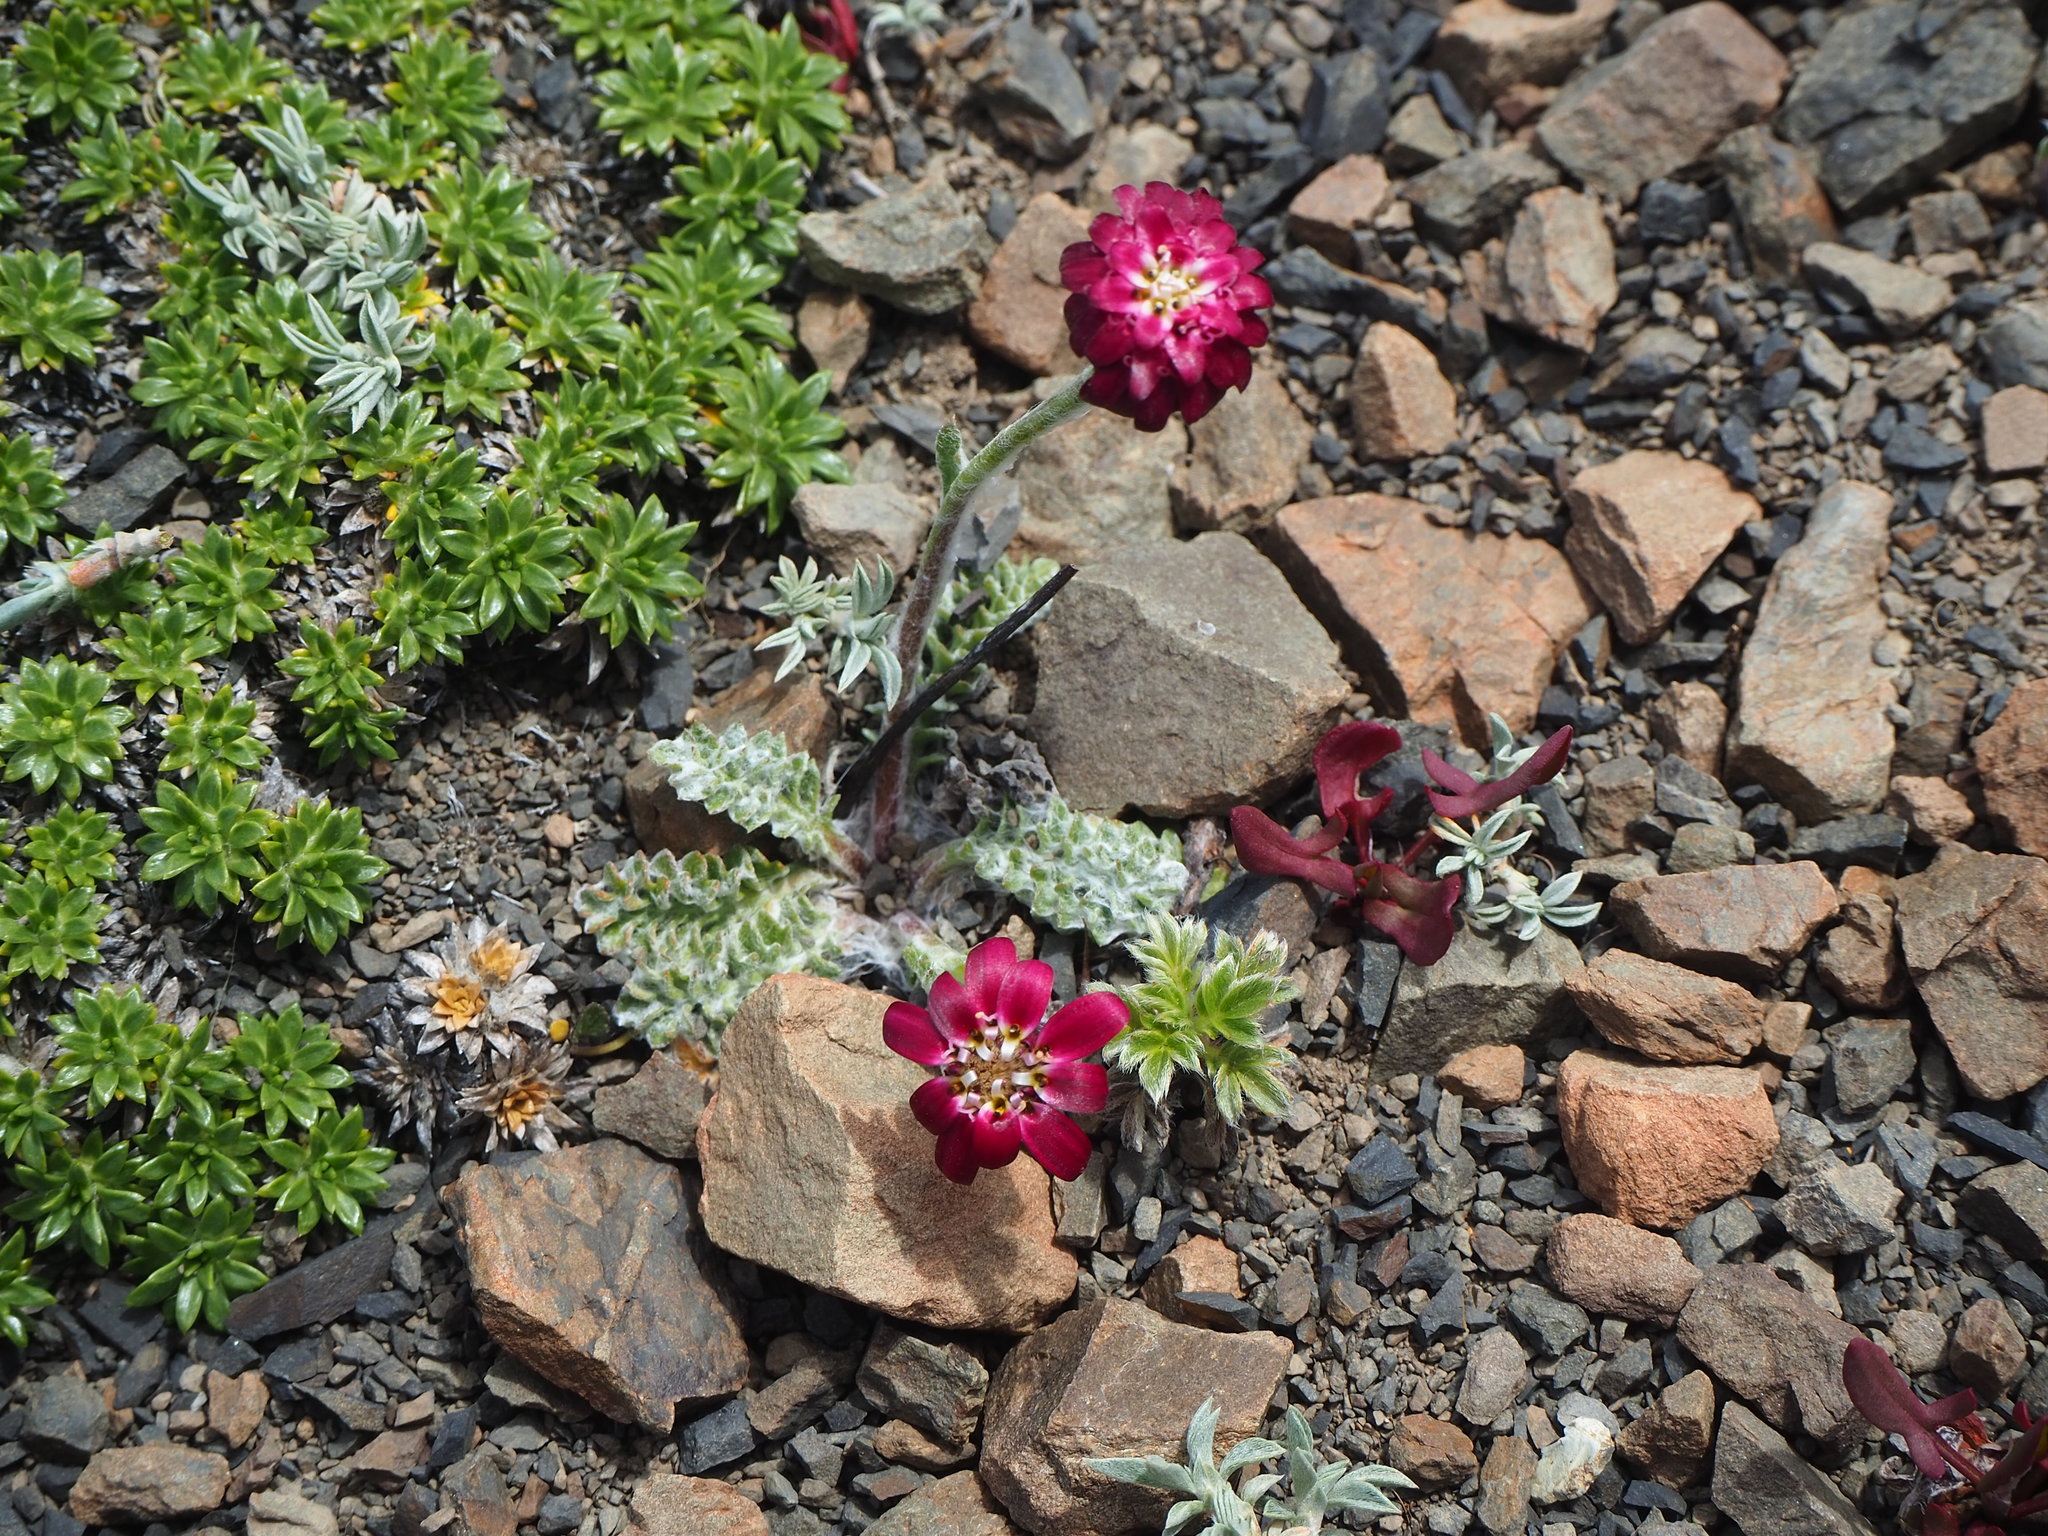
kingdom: Plantae
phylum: Tracheophyta
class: Magnoliopsida
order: Asterales
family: Asteraceae
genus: Leucheria
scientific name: Leucheria purpurea
